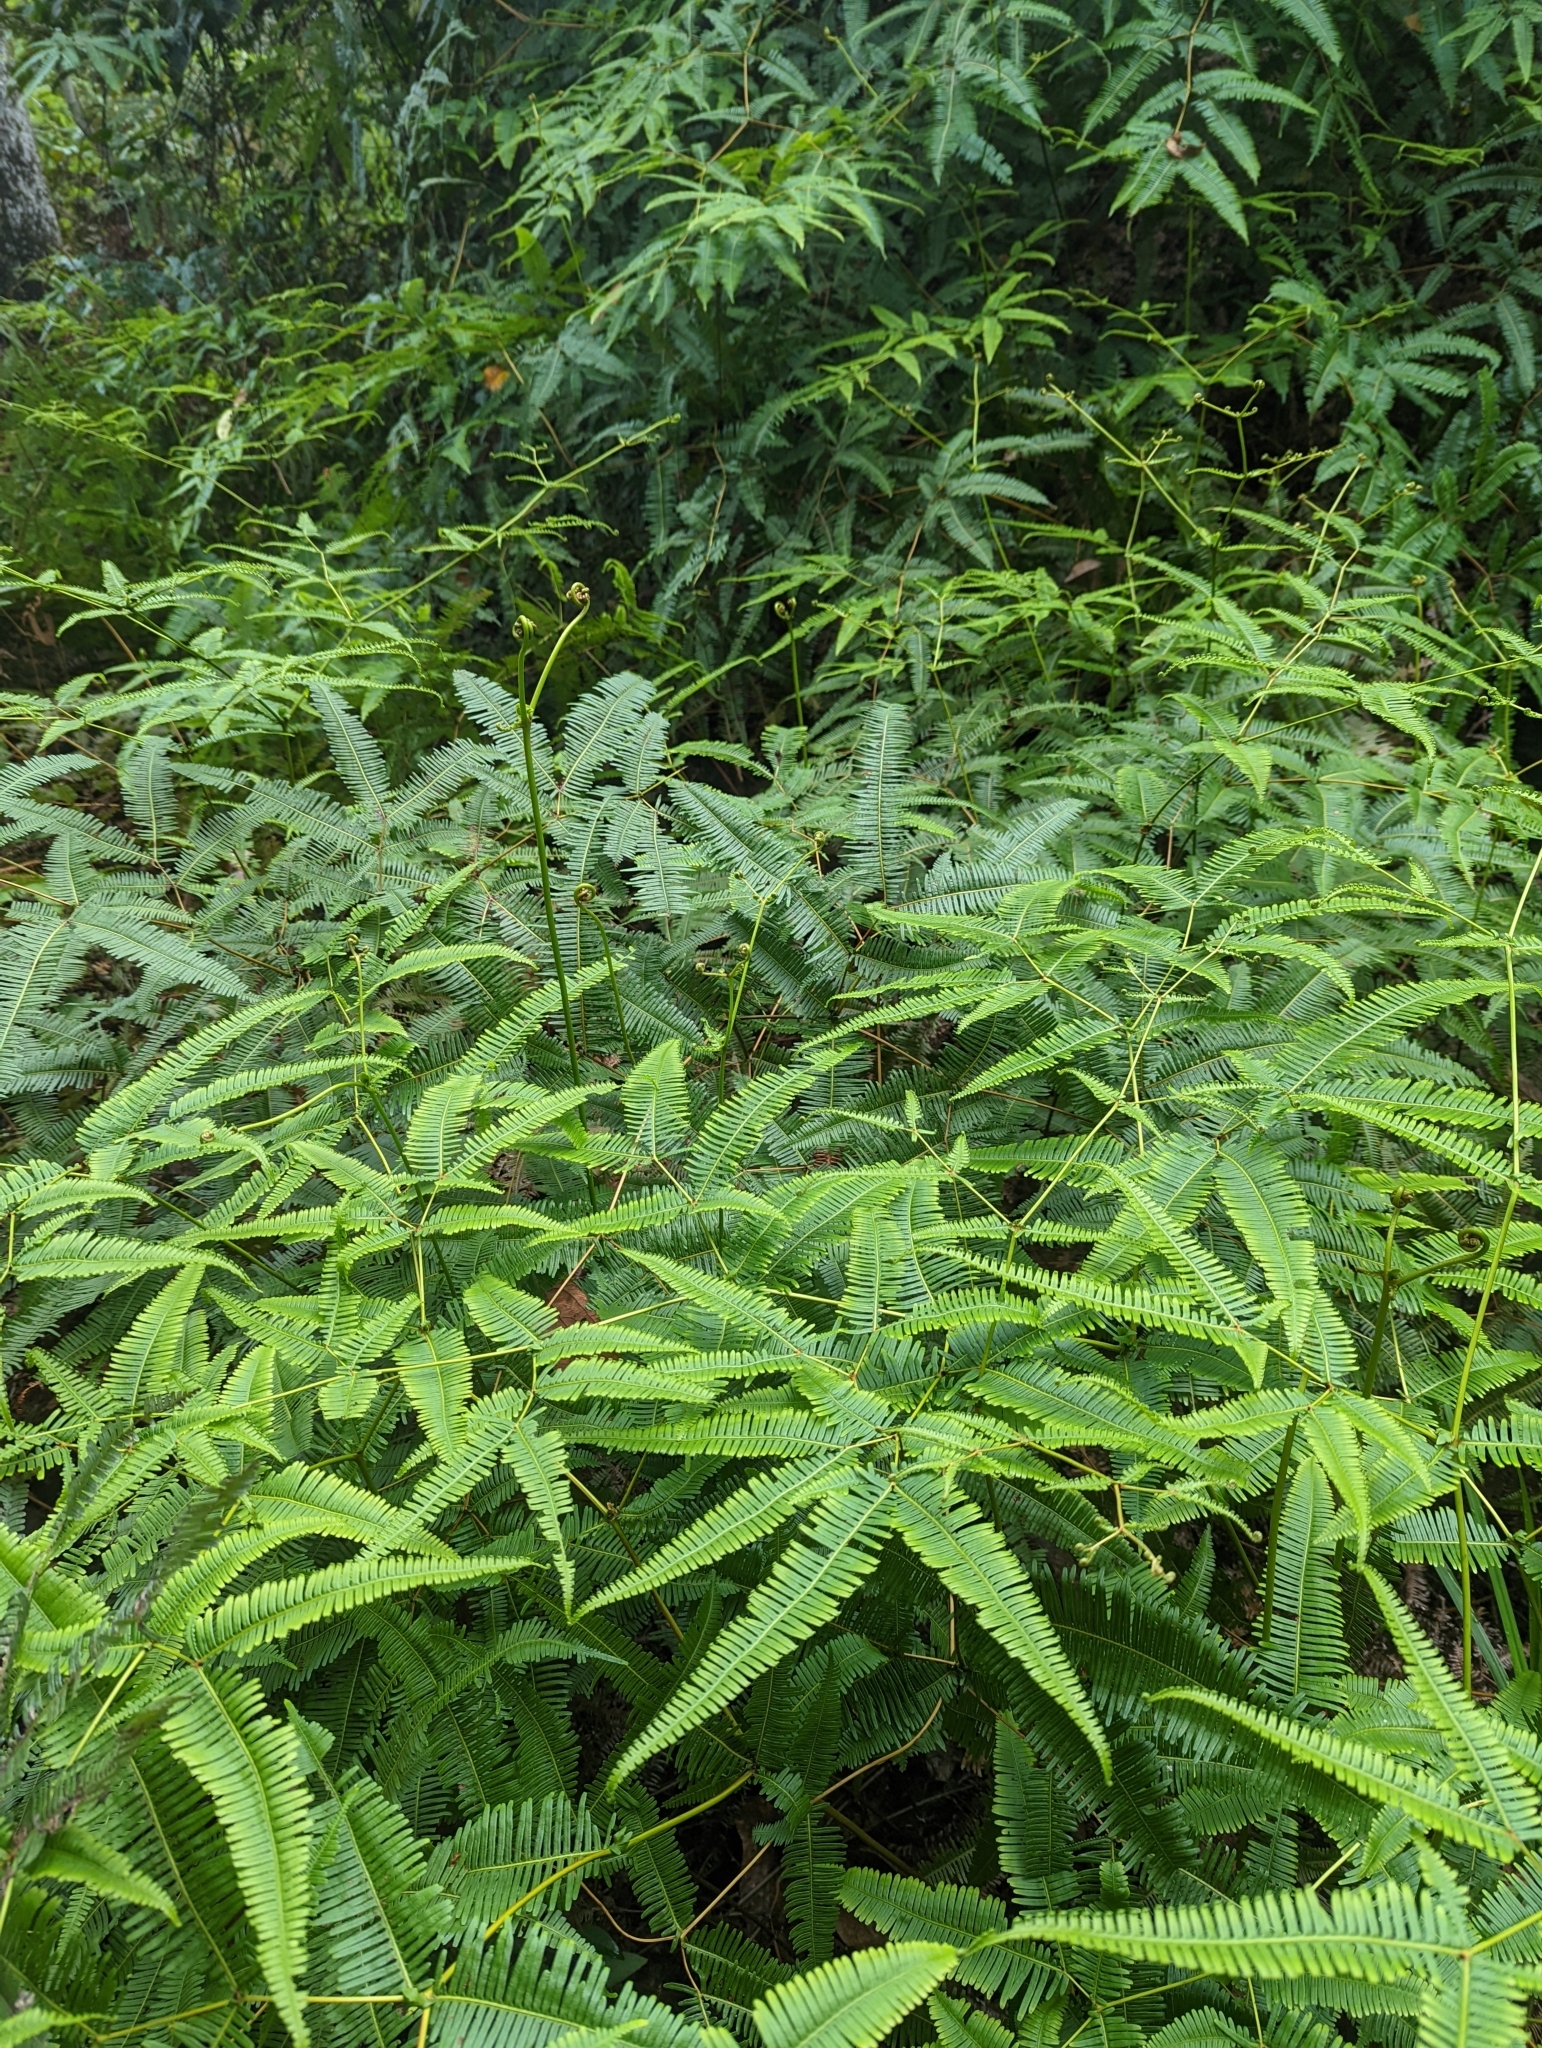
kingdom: Plantae
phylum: Tracheophyta
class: Polypodiopsida
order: Gleicheniales
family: Gleicheniaceae
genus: Dicranopteris
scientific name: Dicranopteris linearis
